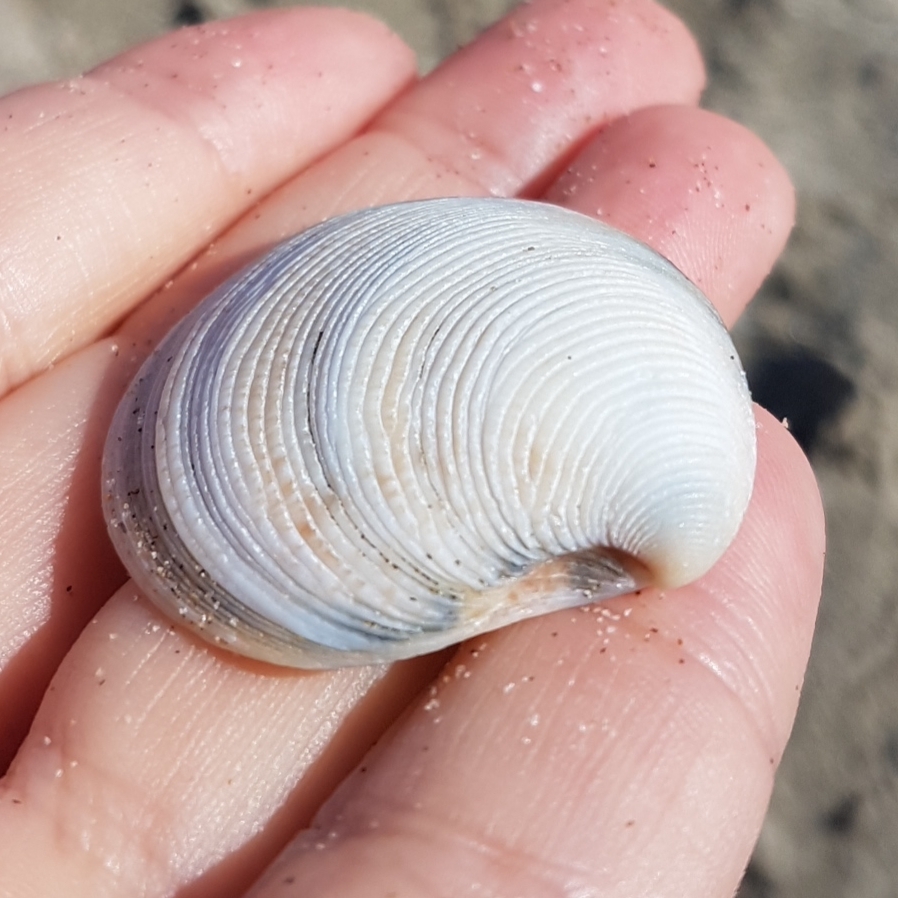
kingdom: Animalia
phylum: Mollusca
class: Bivalvia
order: Venerida
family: Veneridae
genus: Chamelea
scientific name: Chamelea gallina
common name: Chicken venus
